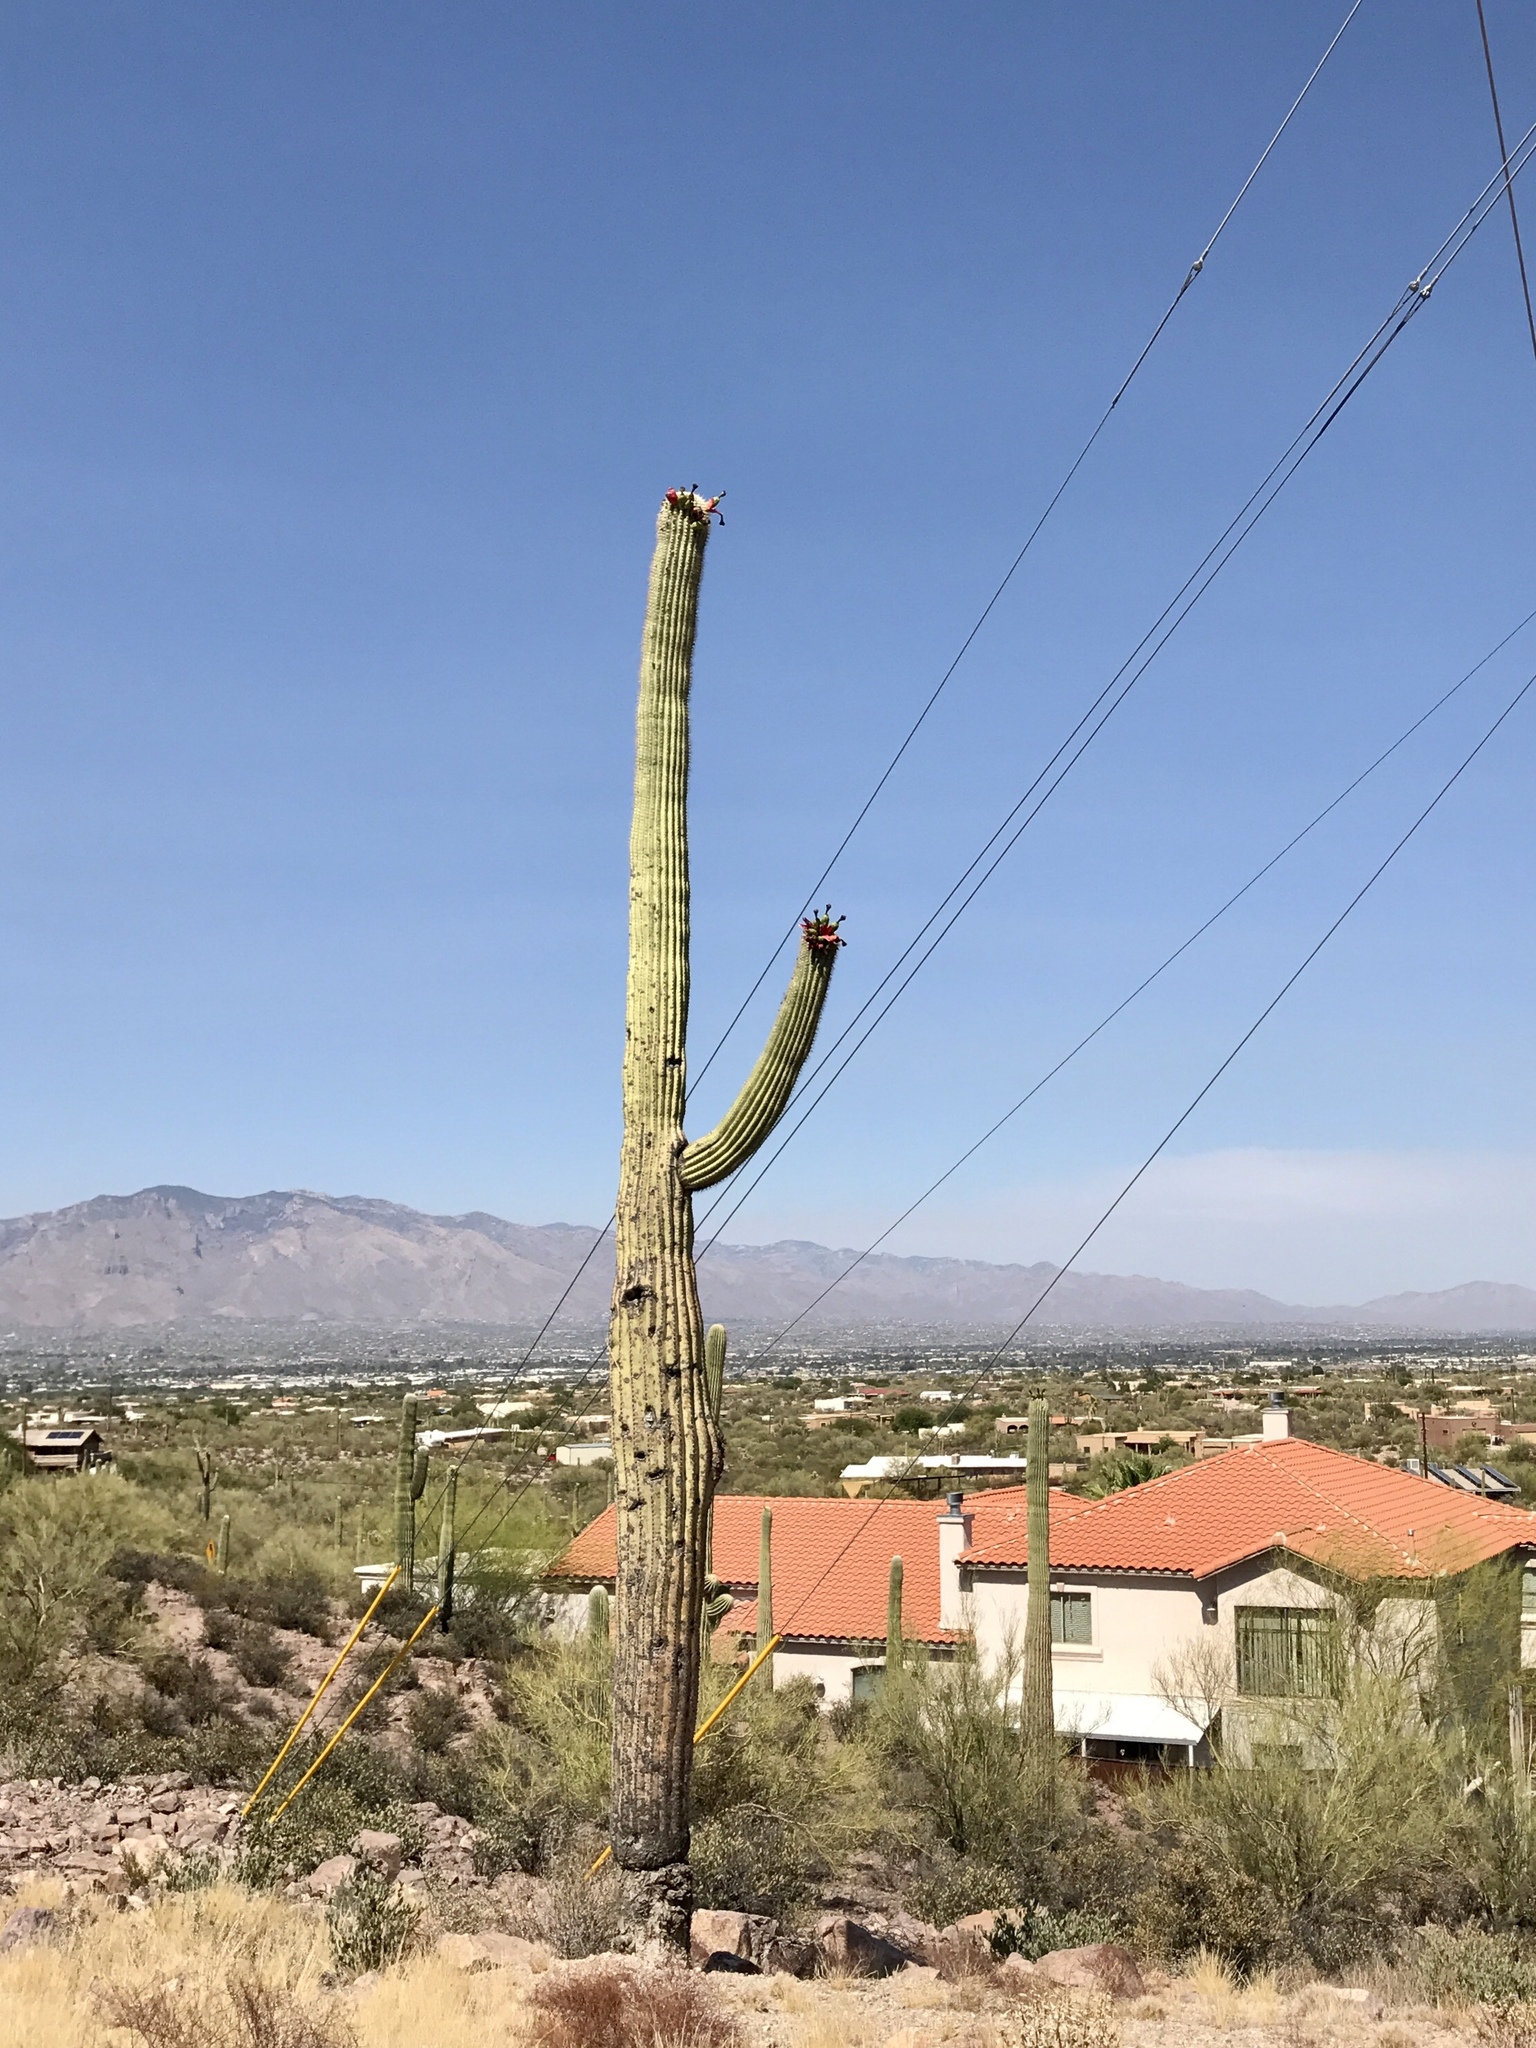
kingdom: Plantae
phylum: Tracheophyta
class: Magnoliopsida
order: Caryophyllales
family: Cactaceae
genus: Carnegiea
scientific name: Carnegiea gigantea
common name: Saguaro
